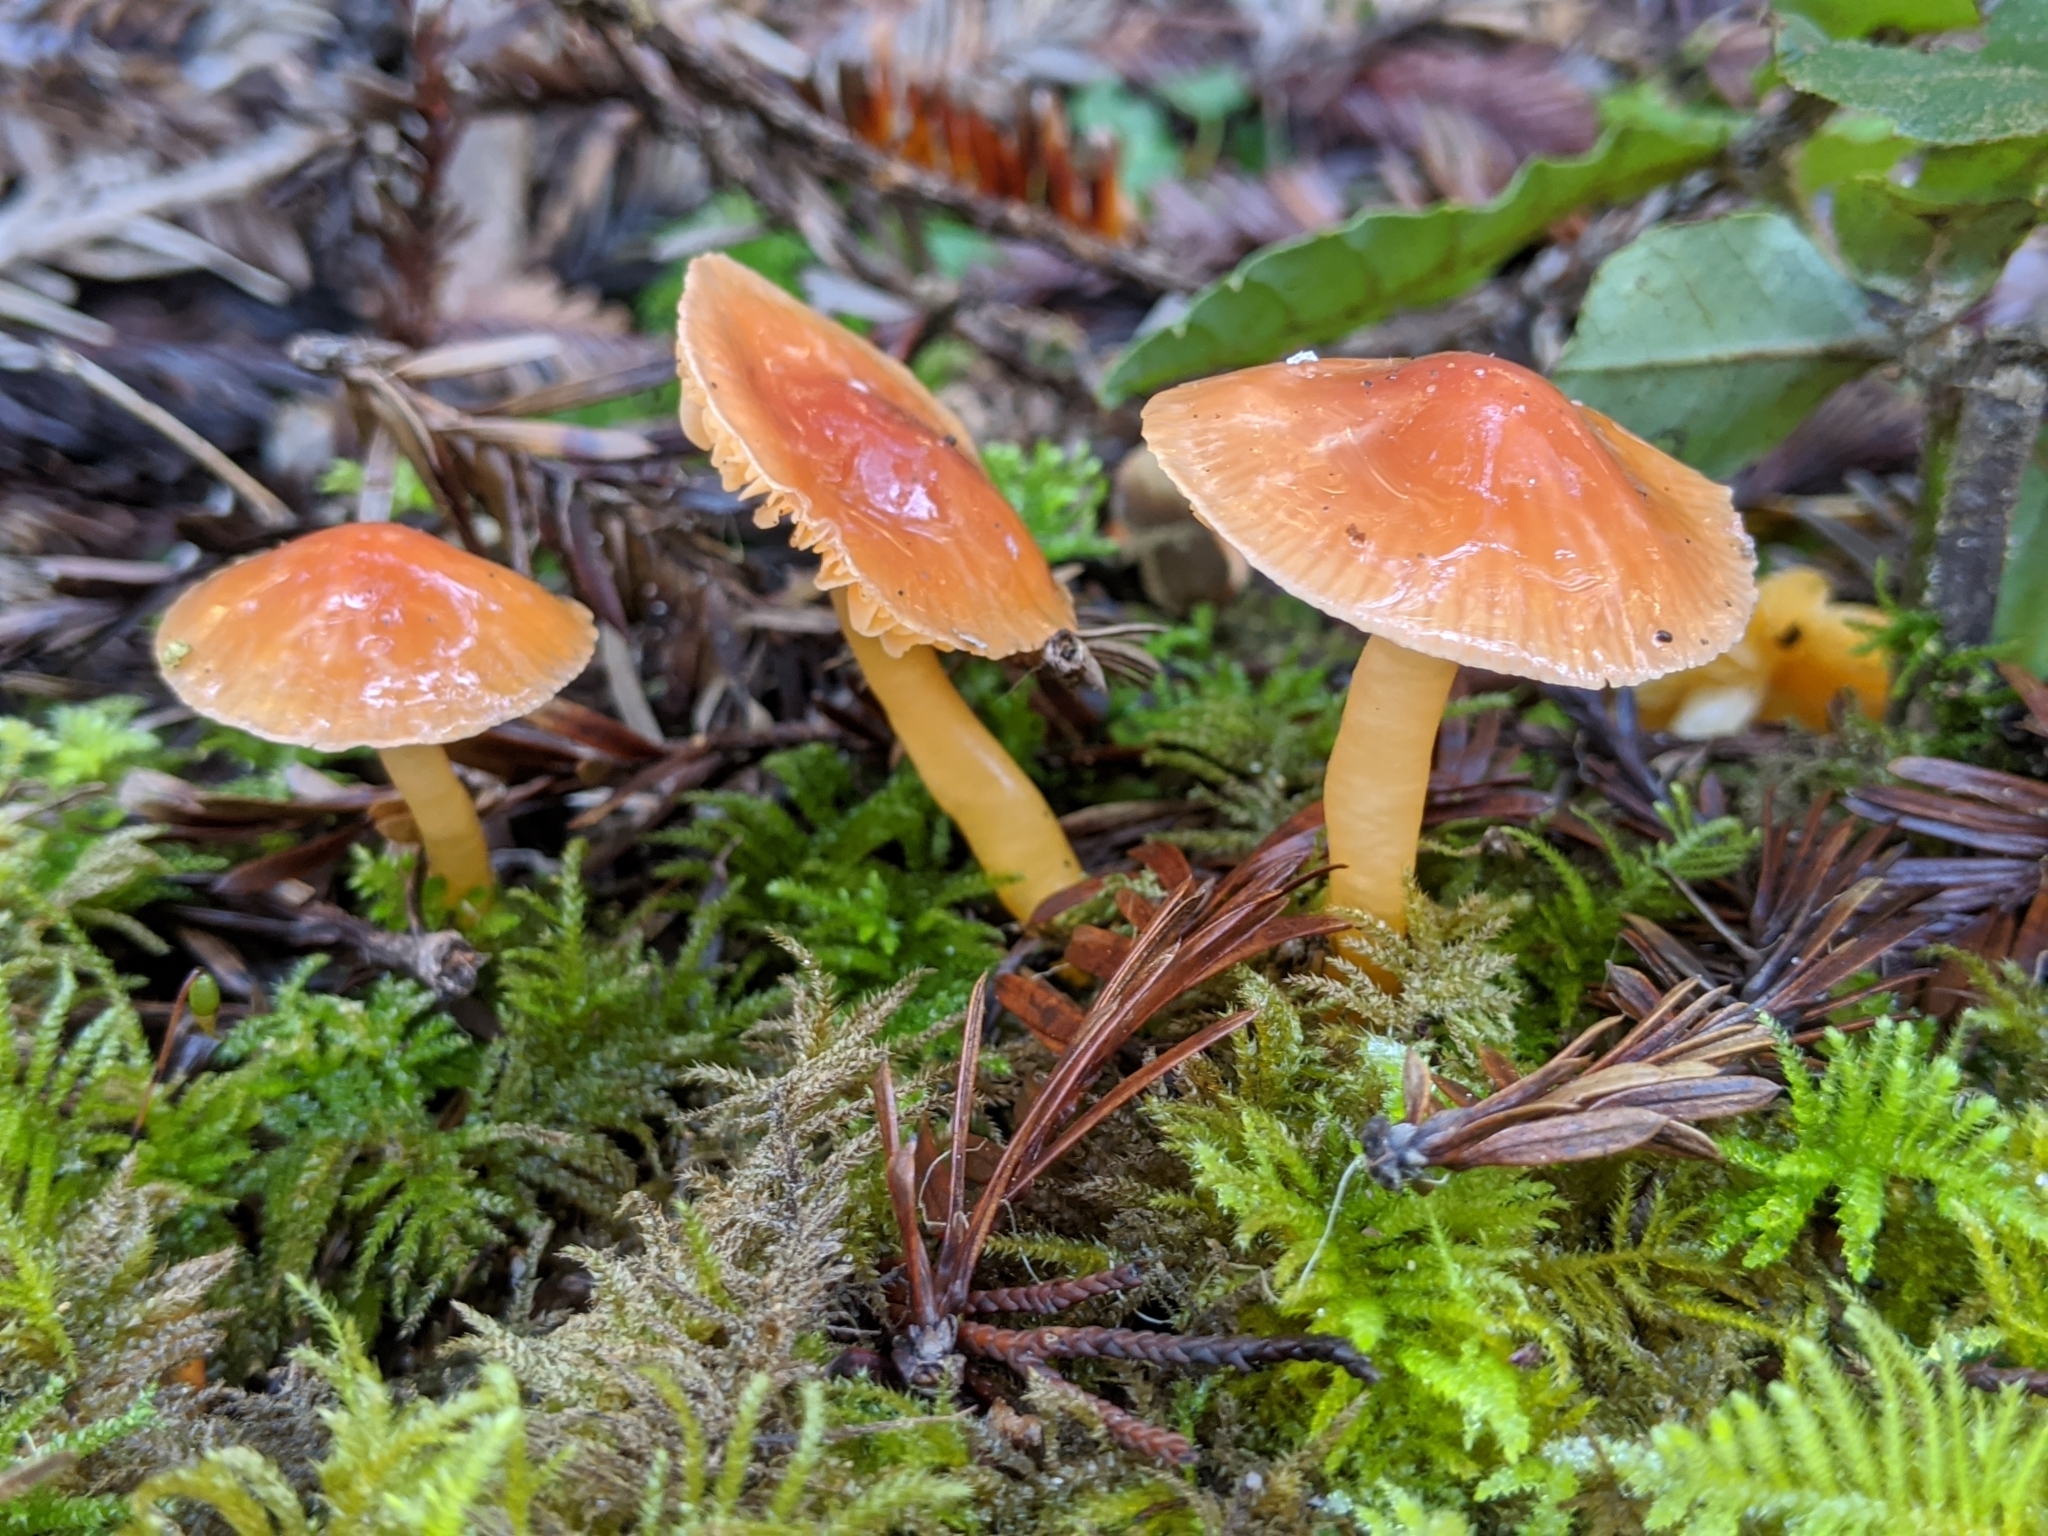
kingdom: Fungi
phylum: Basidiomycota
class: Agaricomycetes
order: Agaricales
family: Hygrophoraceae
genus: Gliophorus
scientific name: Gliophorus psittacinus
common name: Parrot wax-cap
